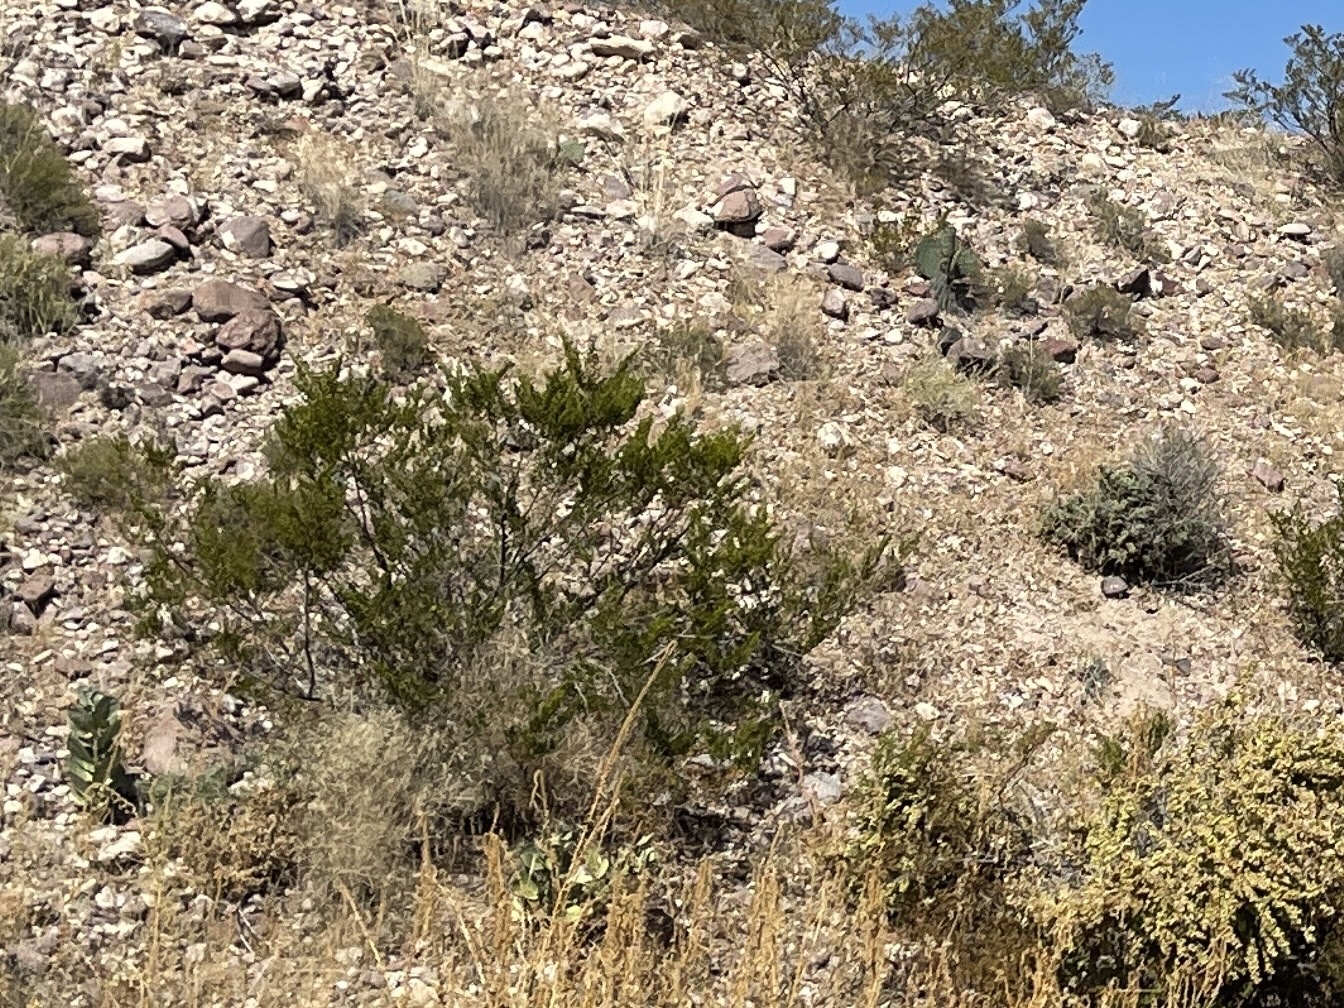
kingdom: Plantae
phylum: Tracheophyta
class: Magnoliopsida
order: Zygophyllales
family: Zygophyllaceae
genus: Larrea
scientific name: Larrea tridentata
